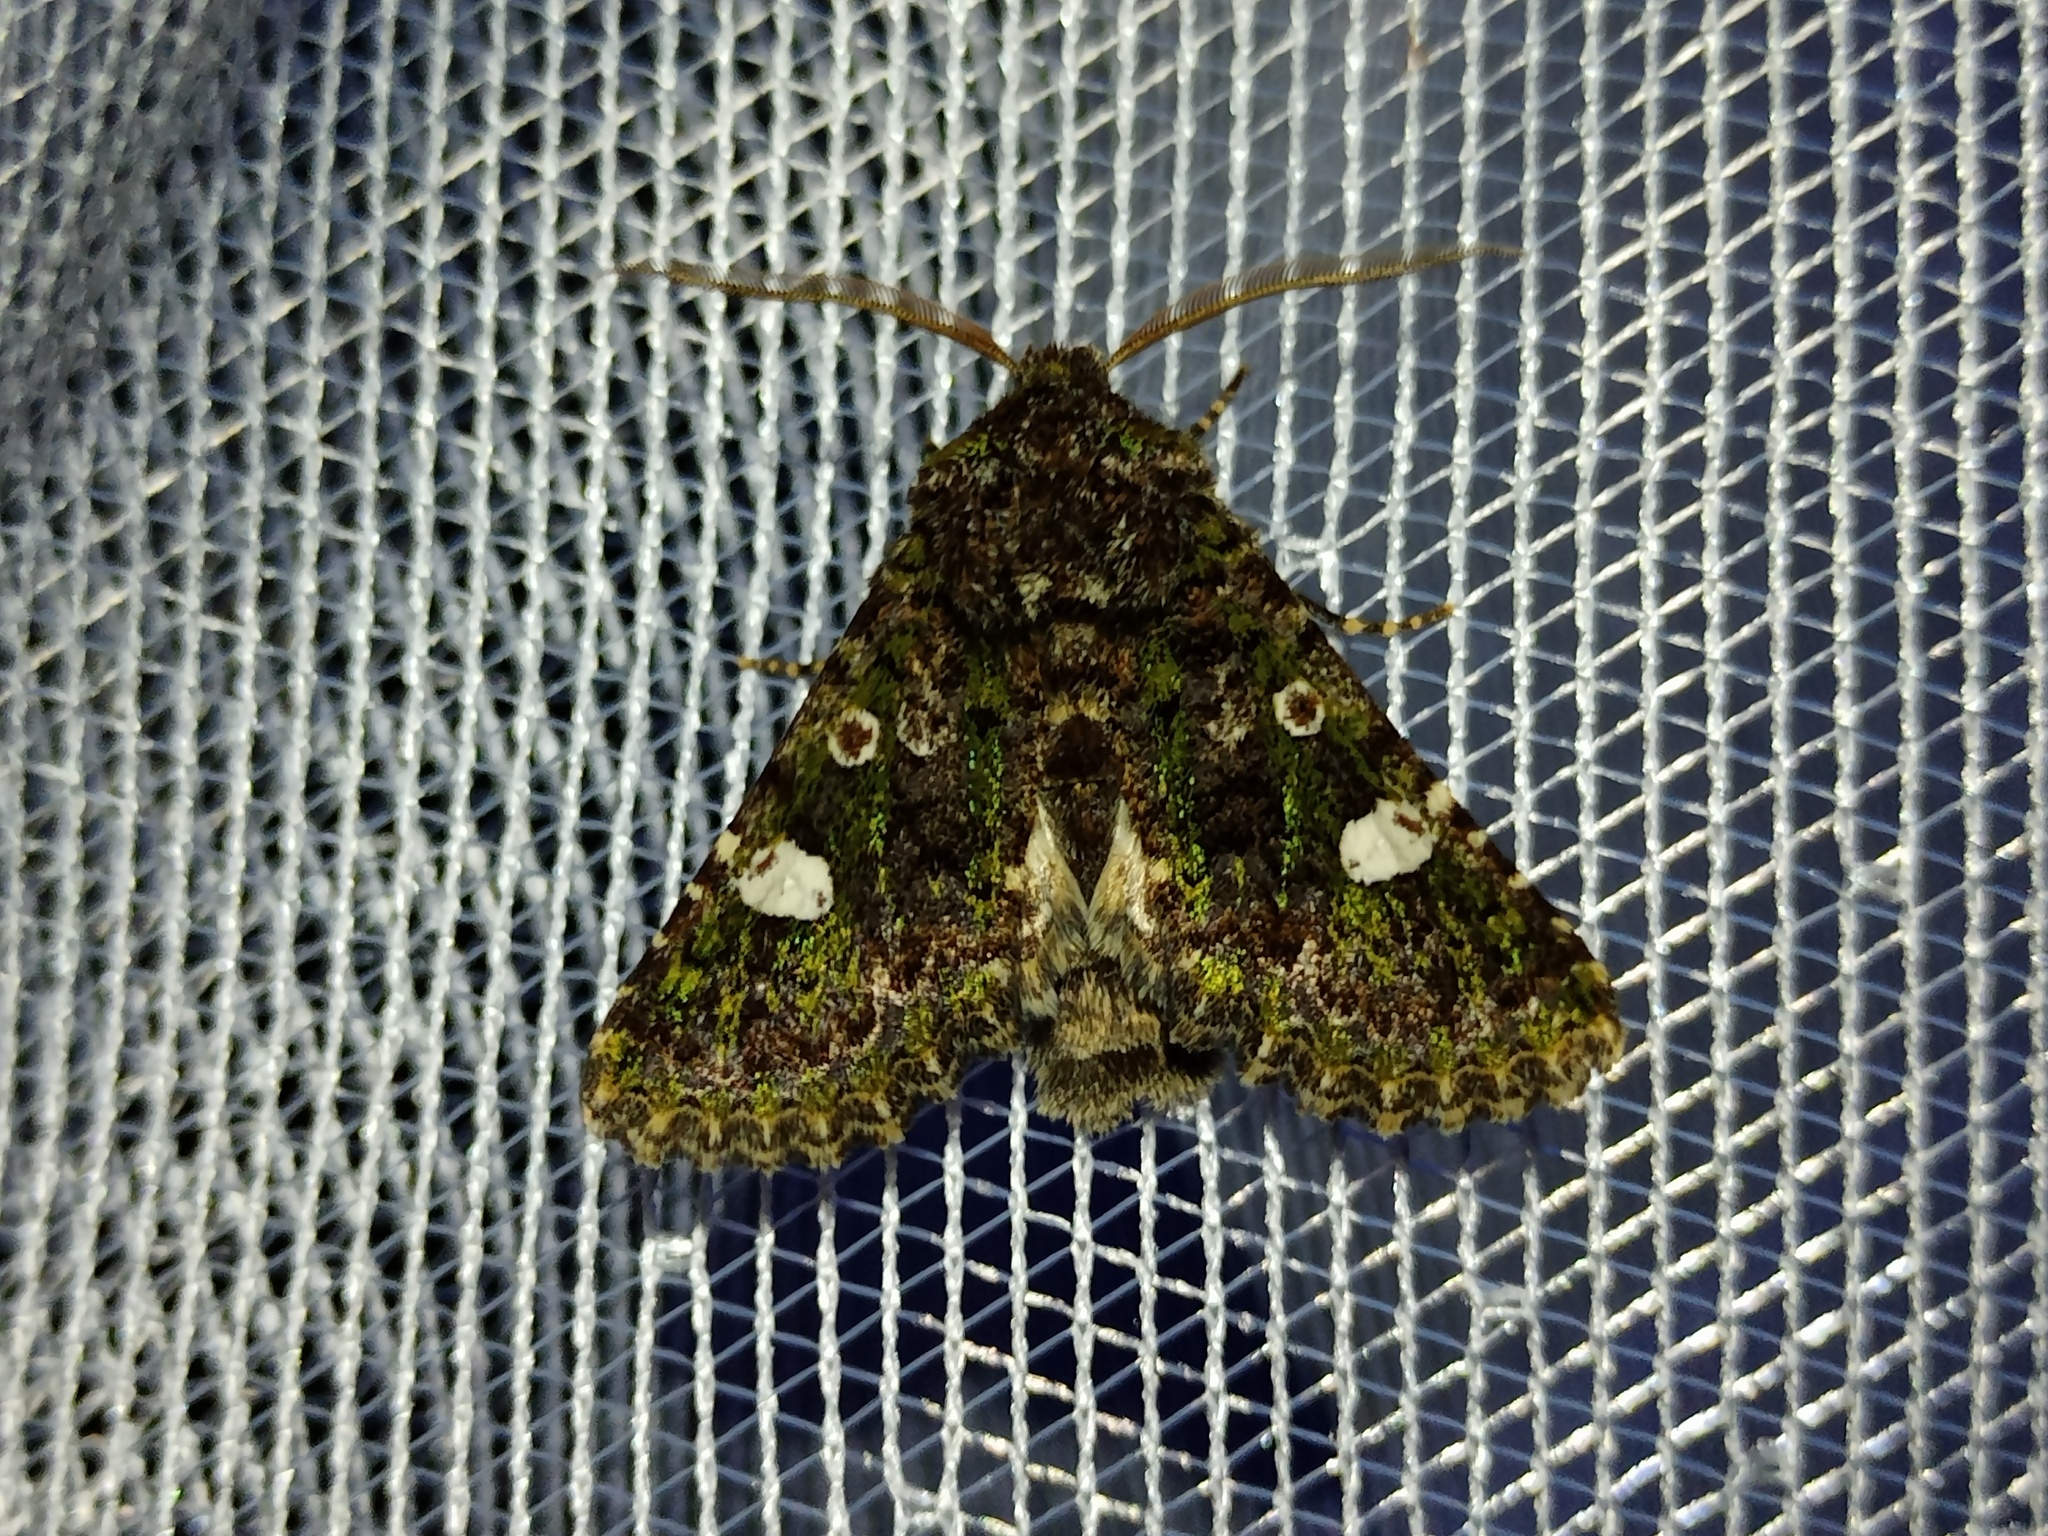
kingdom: Animalia
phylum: Arthropoda
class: Insecta
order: Lepidoptera
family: Noctuidae
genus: Valeria
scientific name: Valeria oleagina
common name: Green-brindled dot
